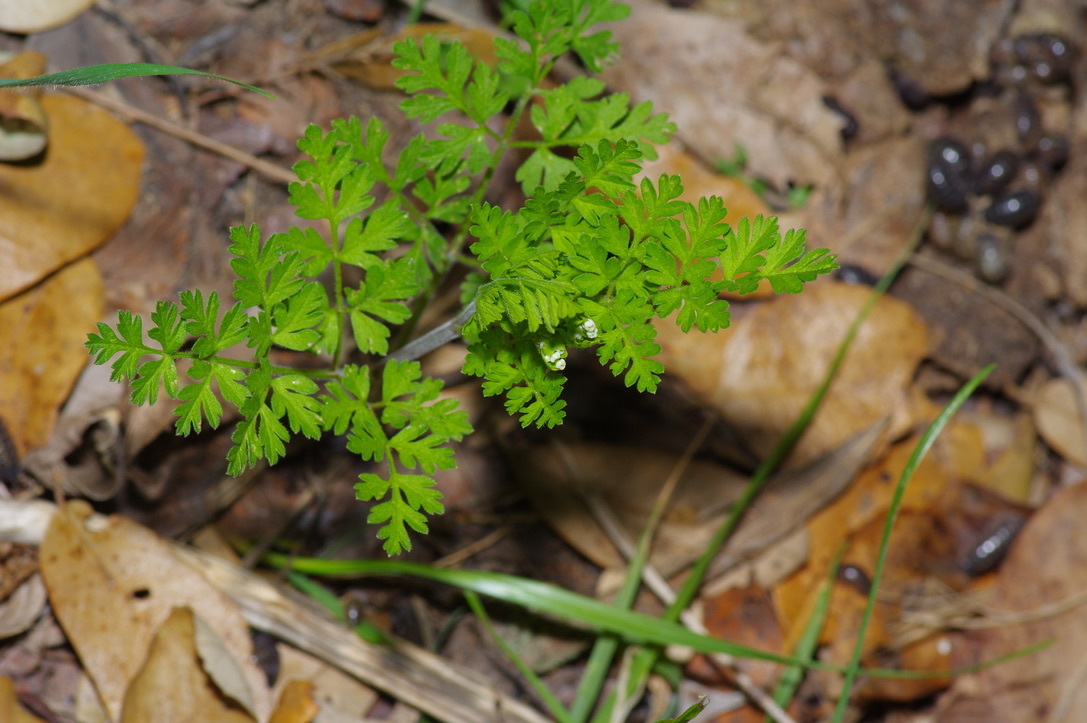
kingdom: Plantae
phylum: Tracheophyta
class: Magnoliopsida
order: Apiales
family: Apiaceae
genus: Chaerophyllum
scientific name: Chaerophyllum tainturieri
